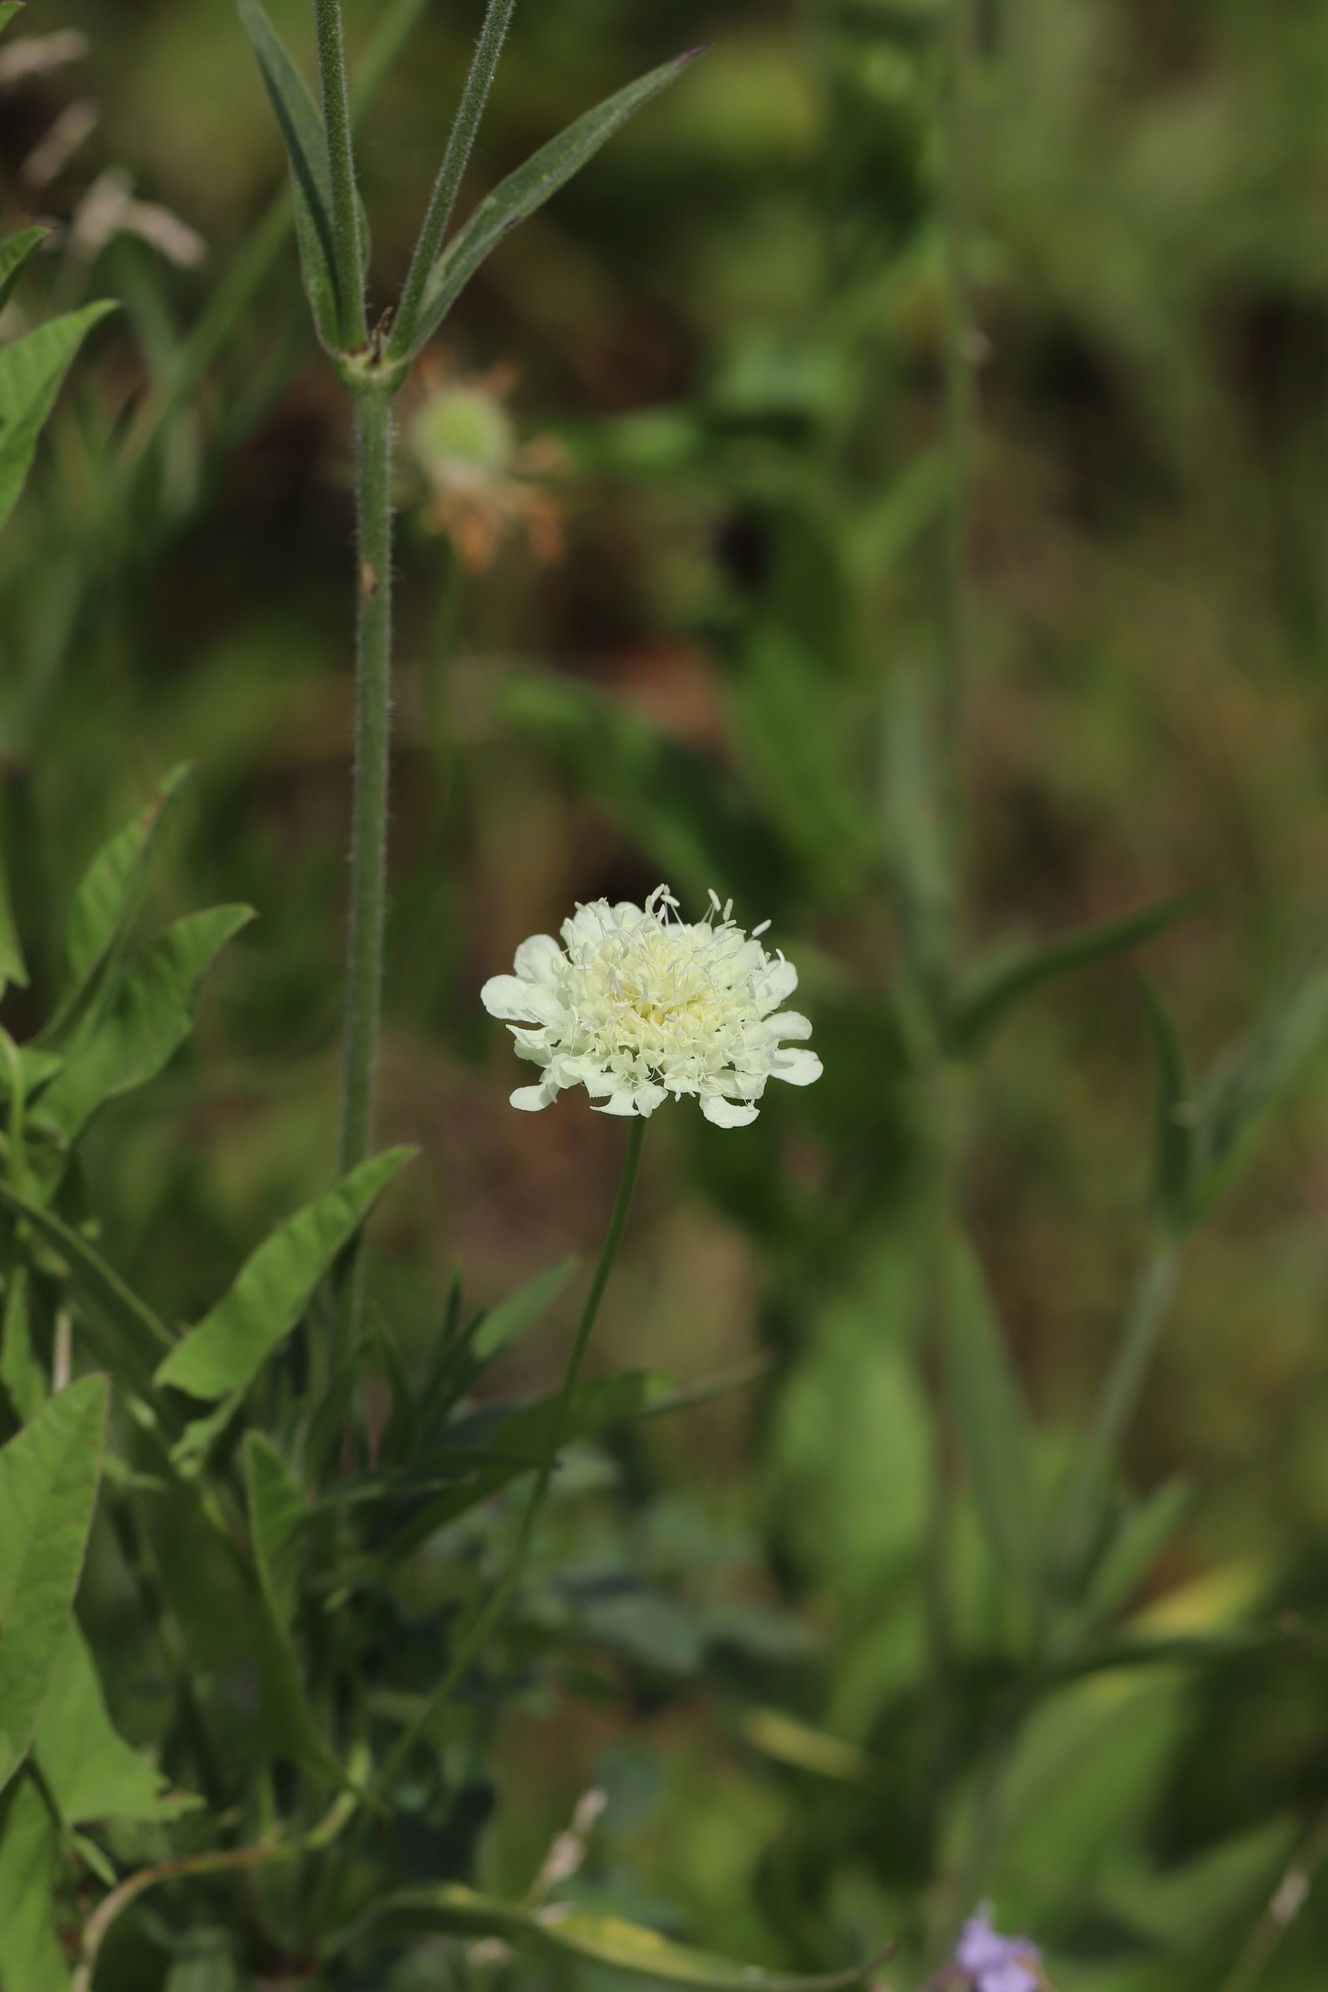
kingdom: Plantae
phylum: Tracheophyta
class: Magnoliopsida
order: Dipsacales
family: Caprifoliaceae
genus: Scabiosa
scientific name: Scabiosa ochroleuca
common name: Cream pincushions
